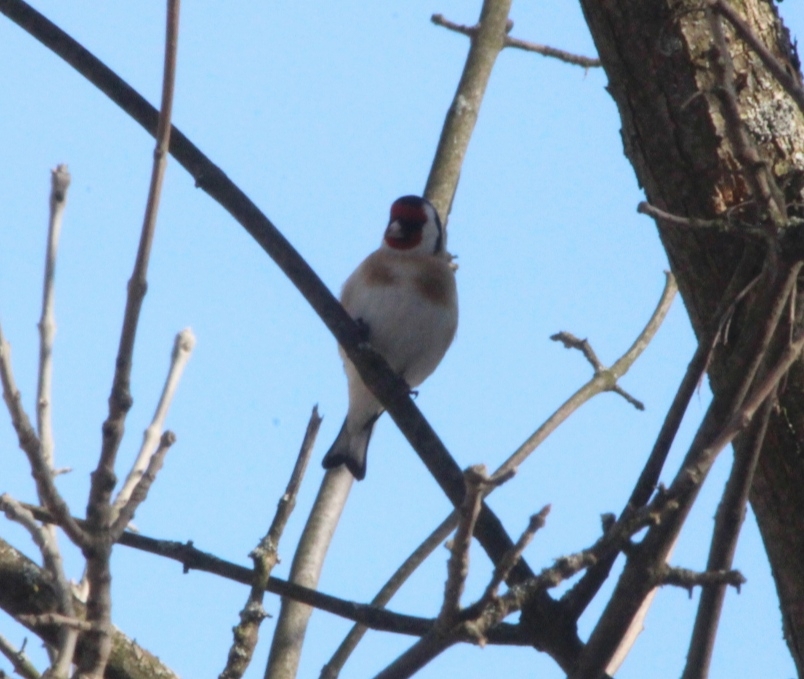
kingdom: Animalia
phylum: Chordata
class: Aves
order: Passeriformes
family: Fringillidae
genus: Carduelis
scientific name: Carduelis carduelis
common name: European goldfinch
